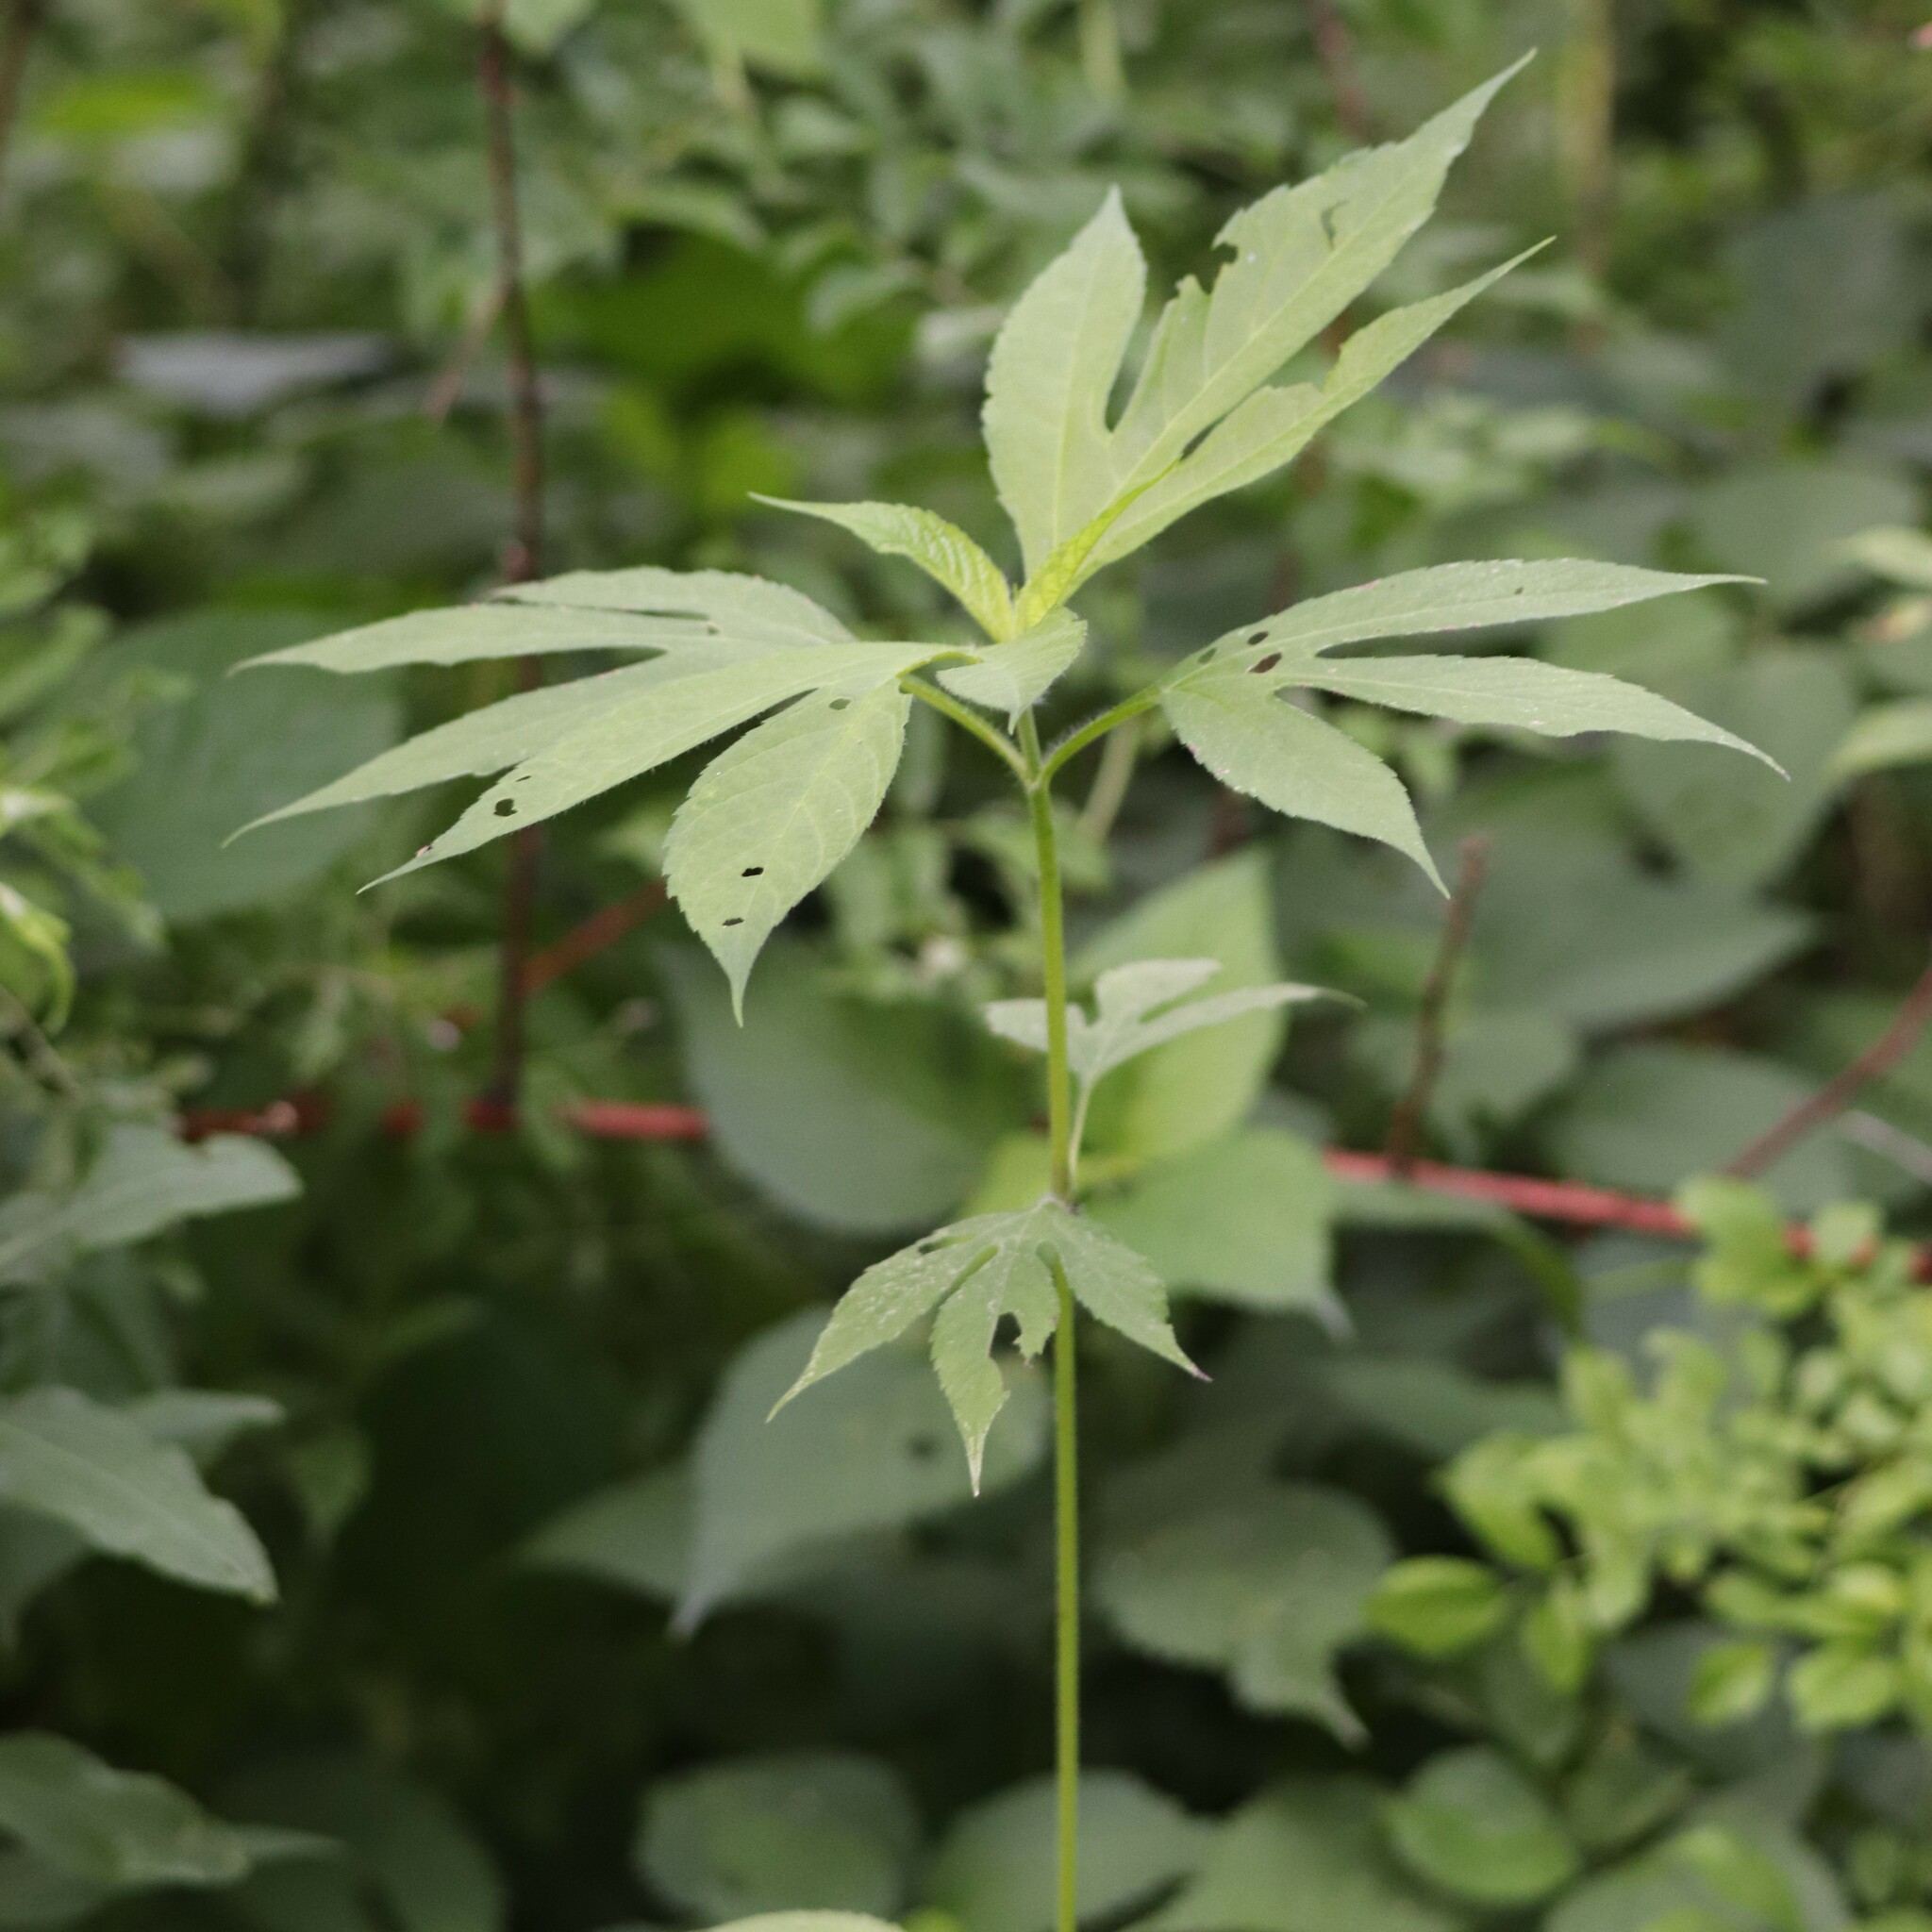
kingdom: Plantae
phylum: Tracheophyta
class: Magnoliopsida
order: Asterales
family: Asteraceae
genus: Ambrosia
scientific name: Ambrosia trifida
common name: Giant ragweed
